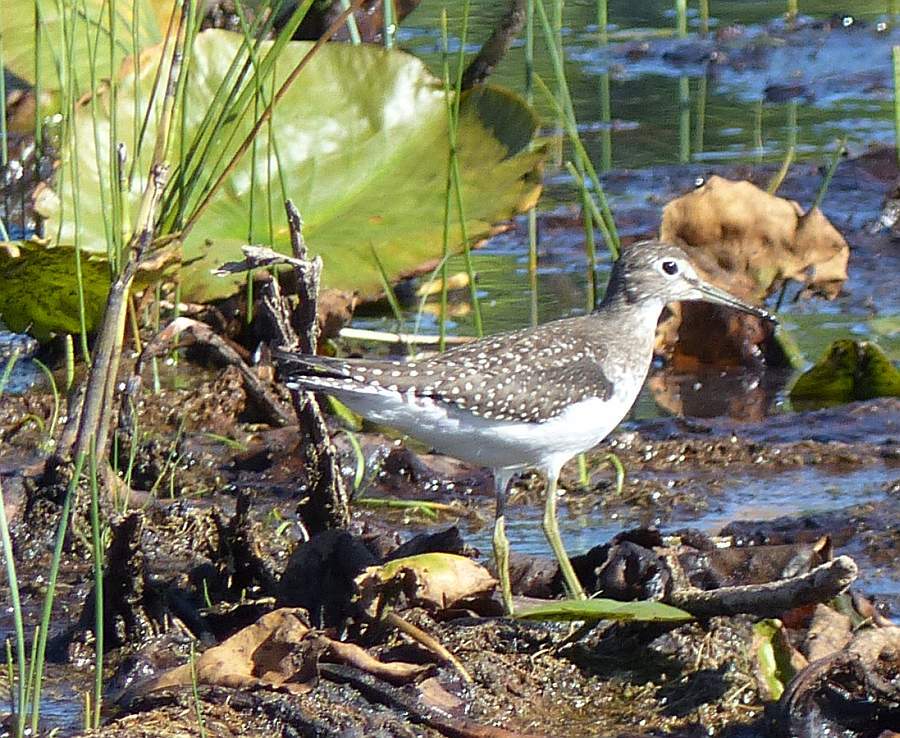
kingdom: Animalia
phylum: Chordata
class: Aves
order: Charadriiformes
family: Scolopacidae
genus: Tringa
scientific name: Tringa solitaria
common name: Solitary sandpiper
